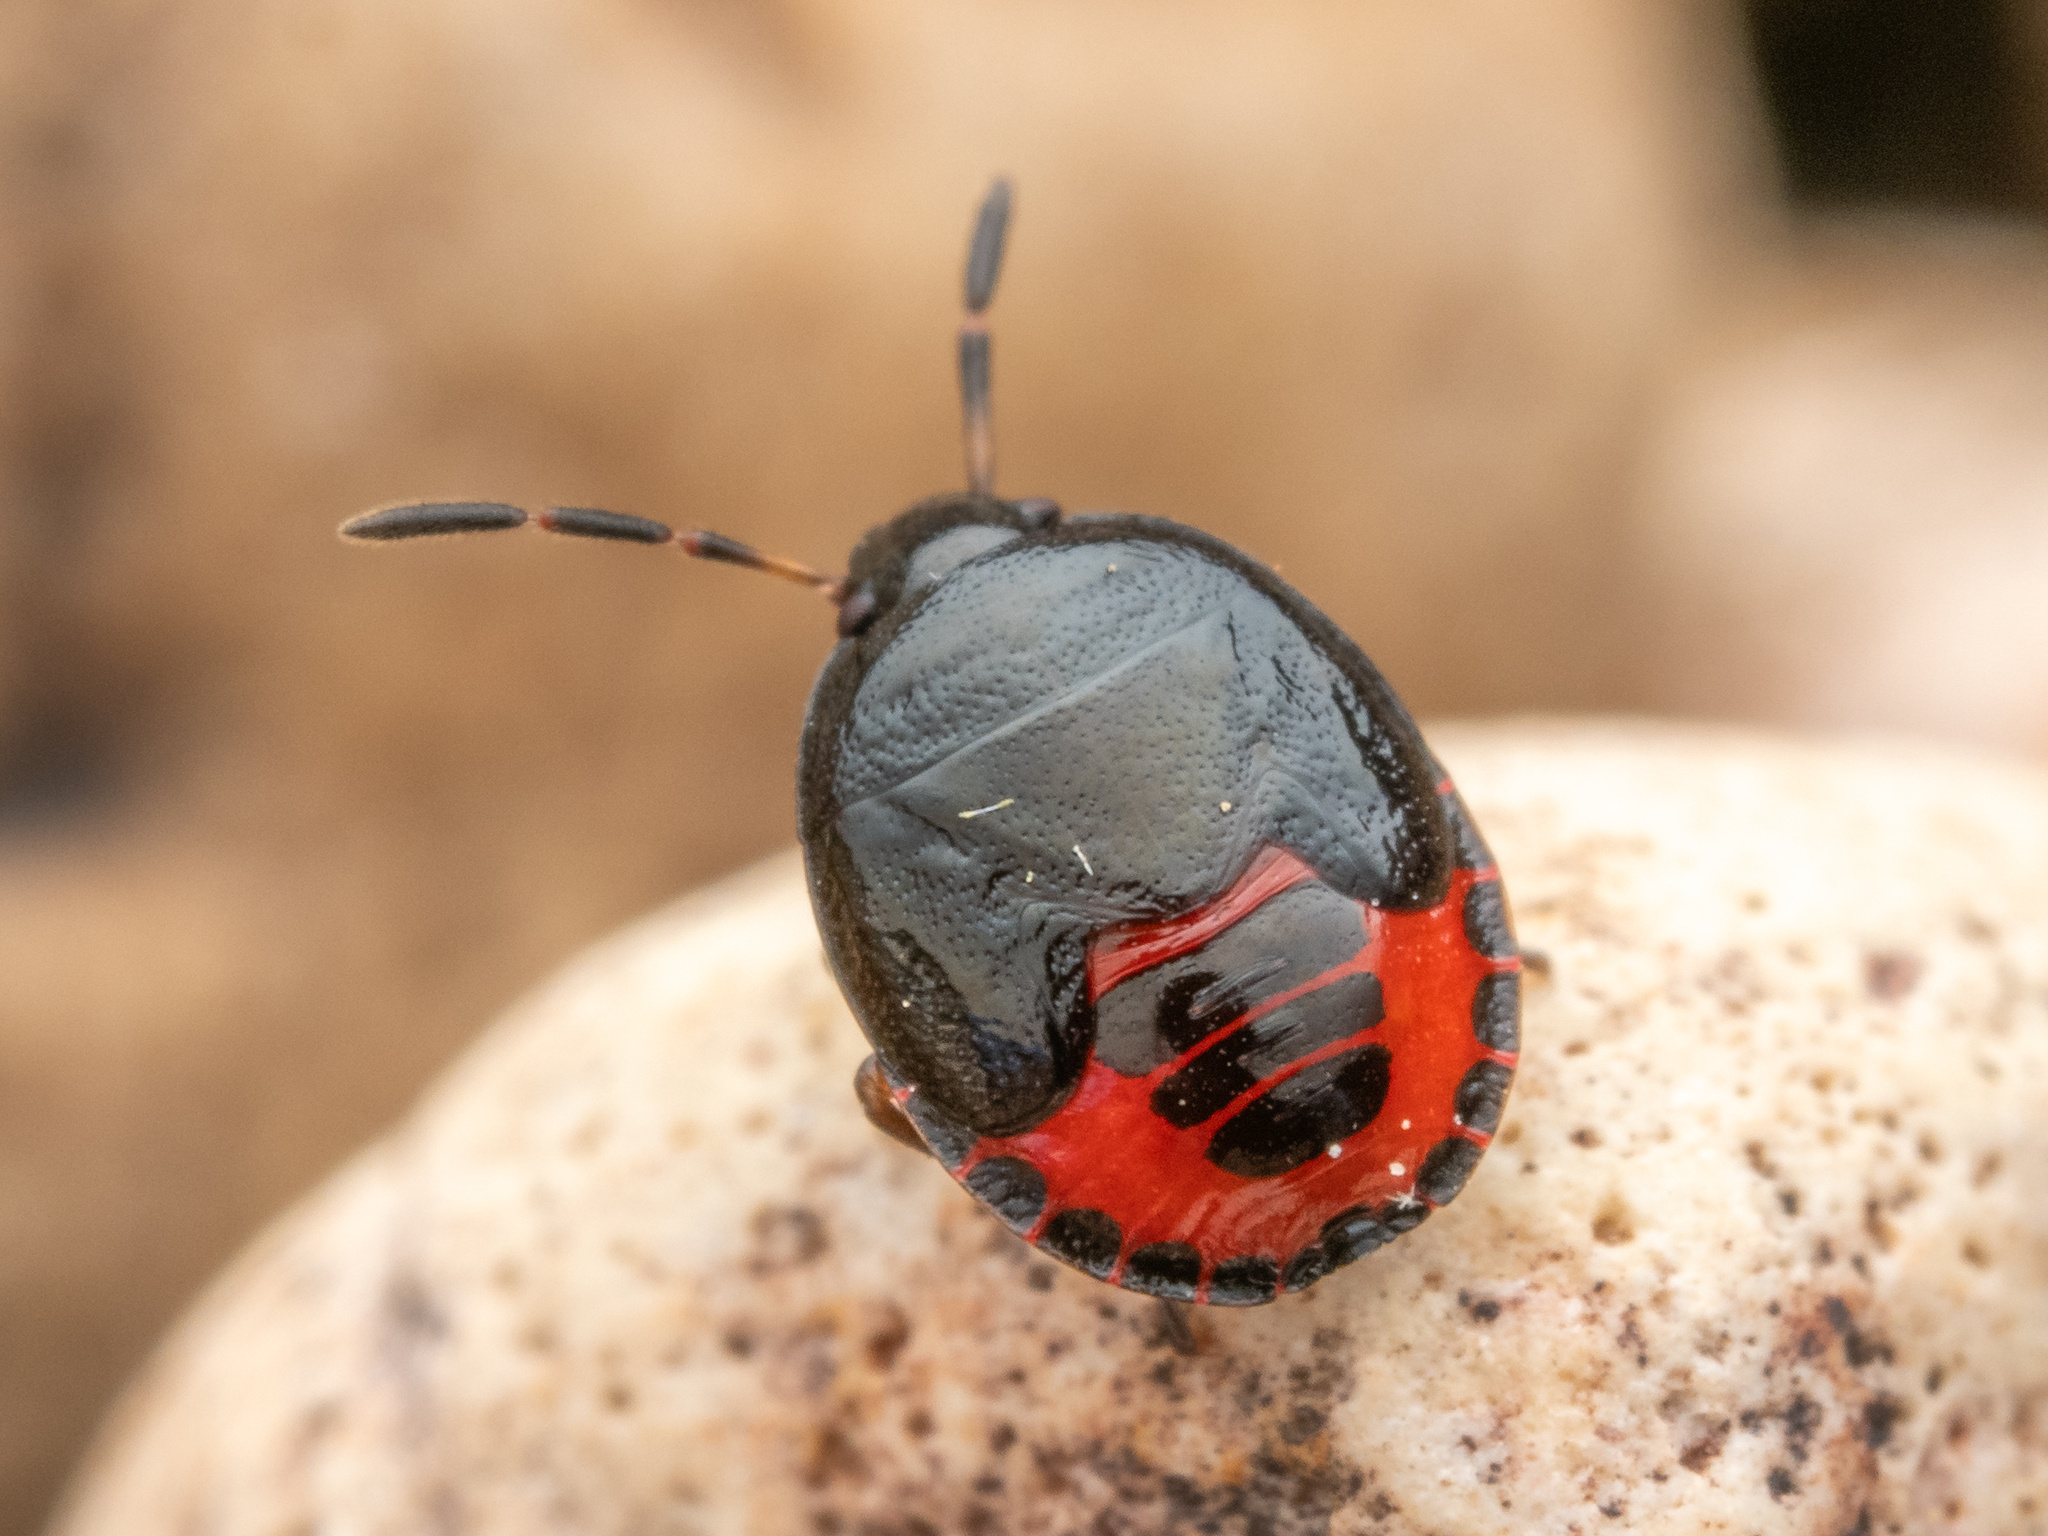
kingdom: Animalia
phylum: Arthropoda
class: Insecta
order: Hemiptera
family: Cydnidae
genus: Sehirus
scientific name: Sehirus cinctus
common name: White-margined burrower bug
